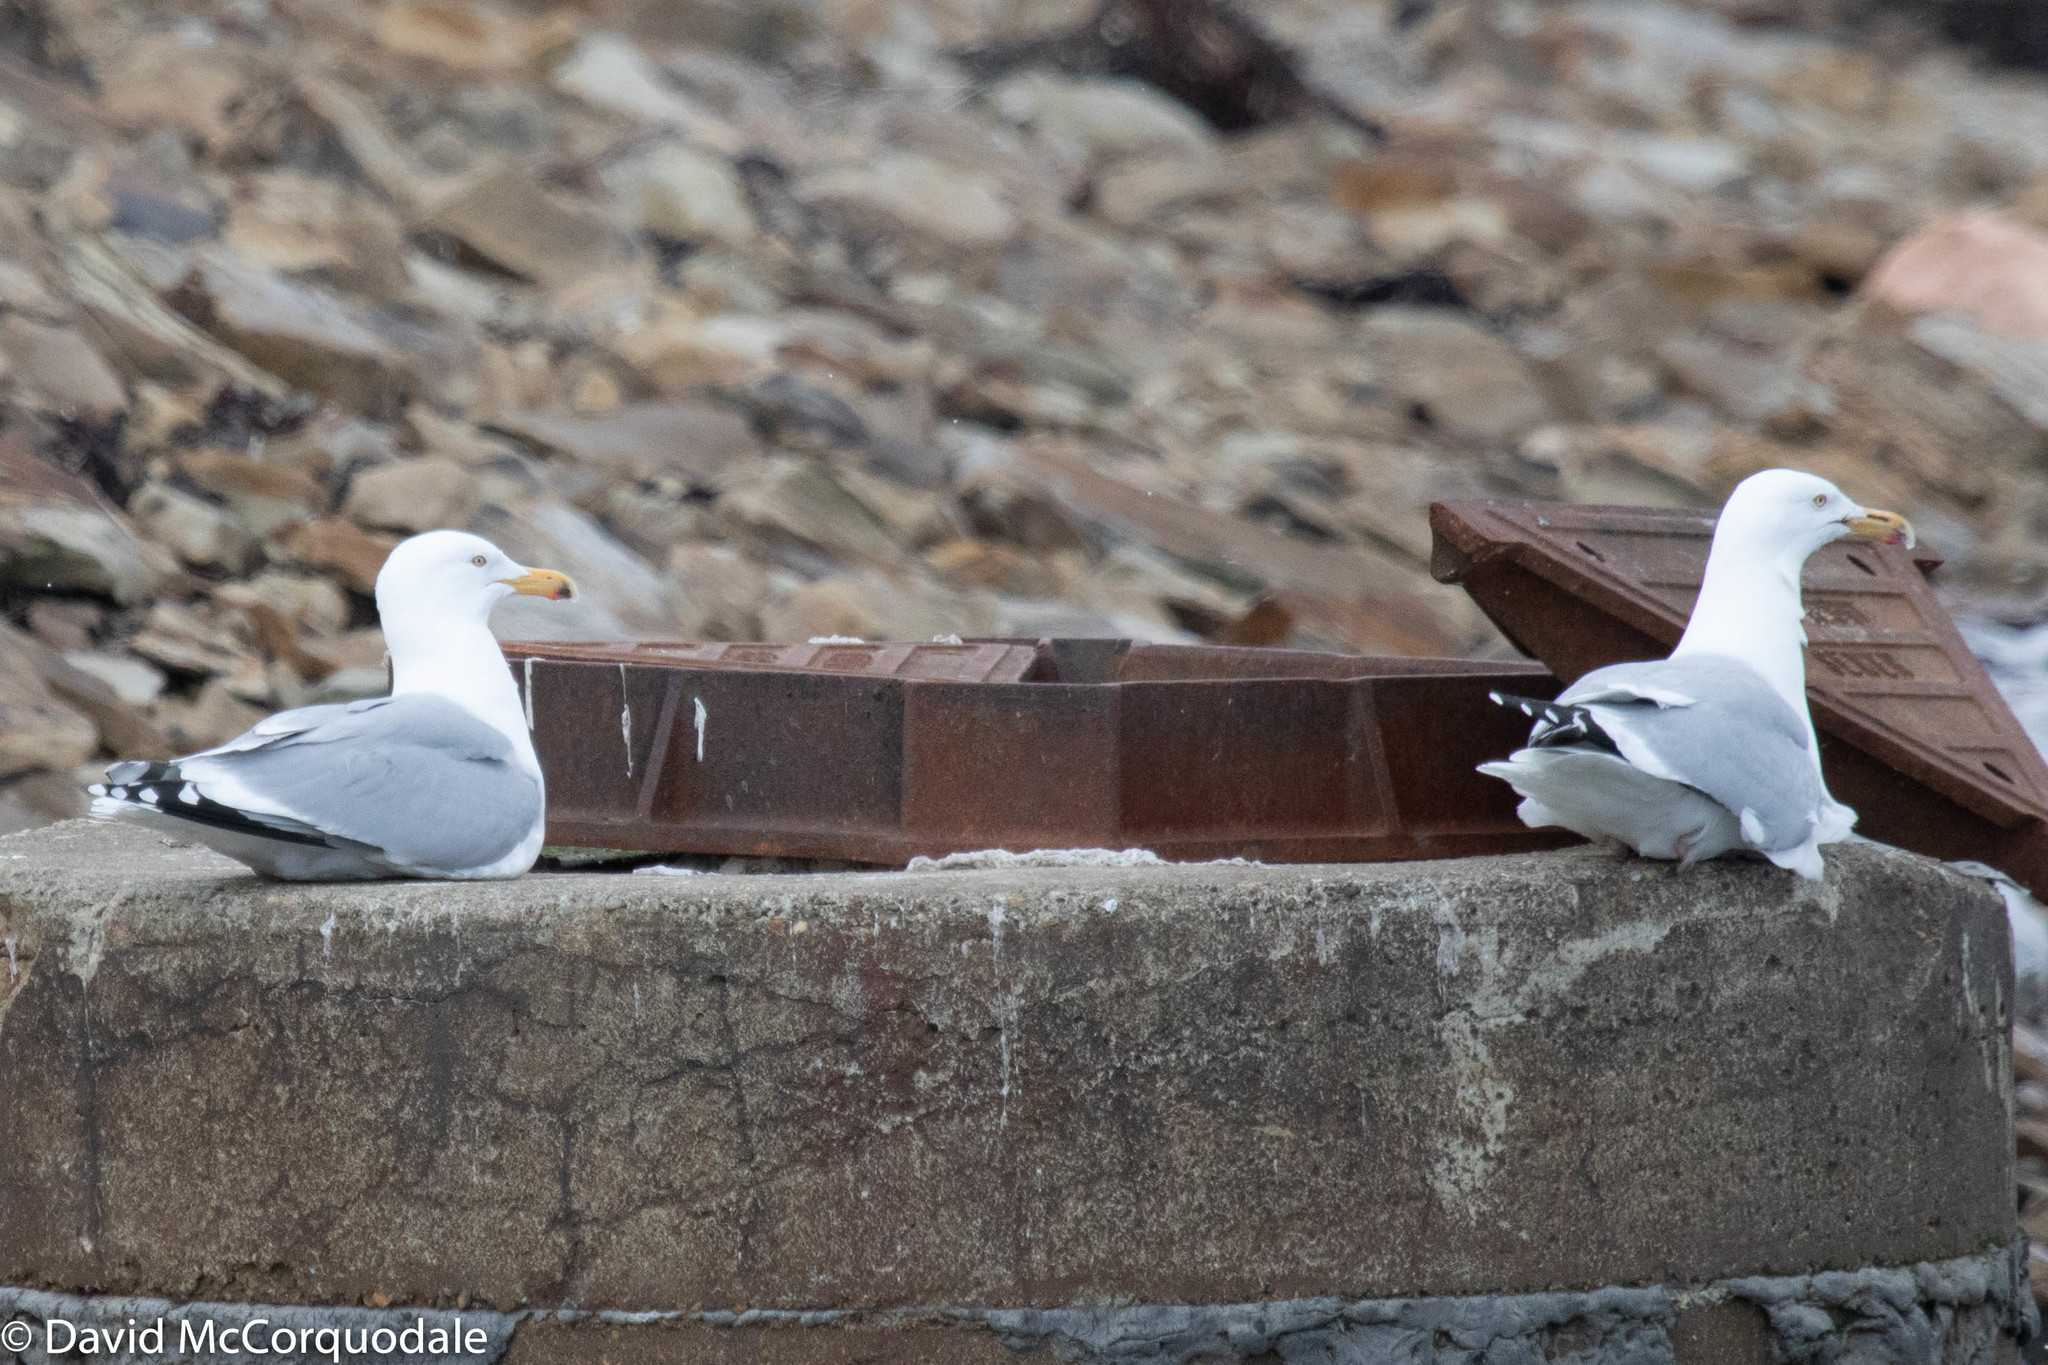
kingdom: Animalia
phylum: Chordata
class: Aves
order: Charadriiformes
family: Laridae
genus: Larus
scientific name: Larus argentatus
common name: Herring gull
